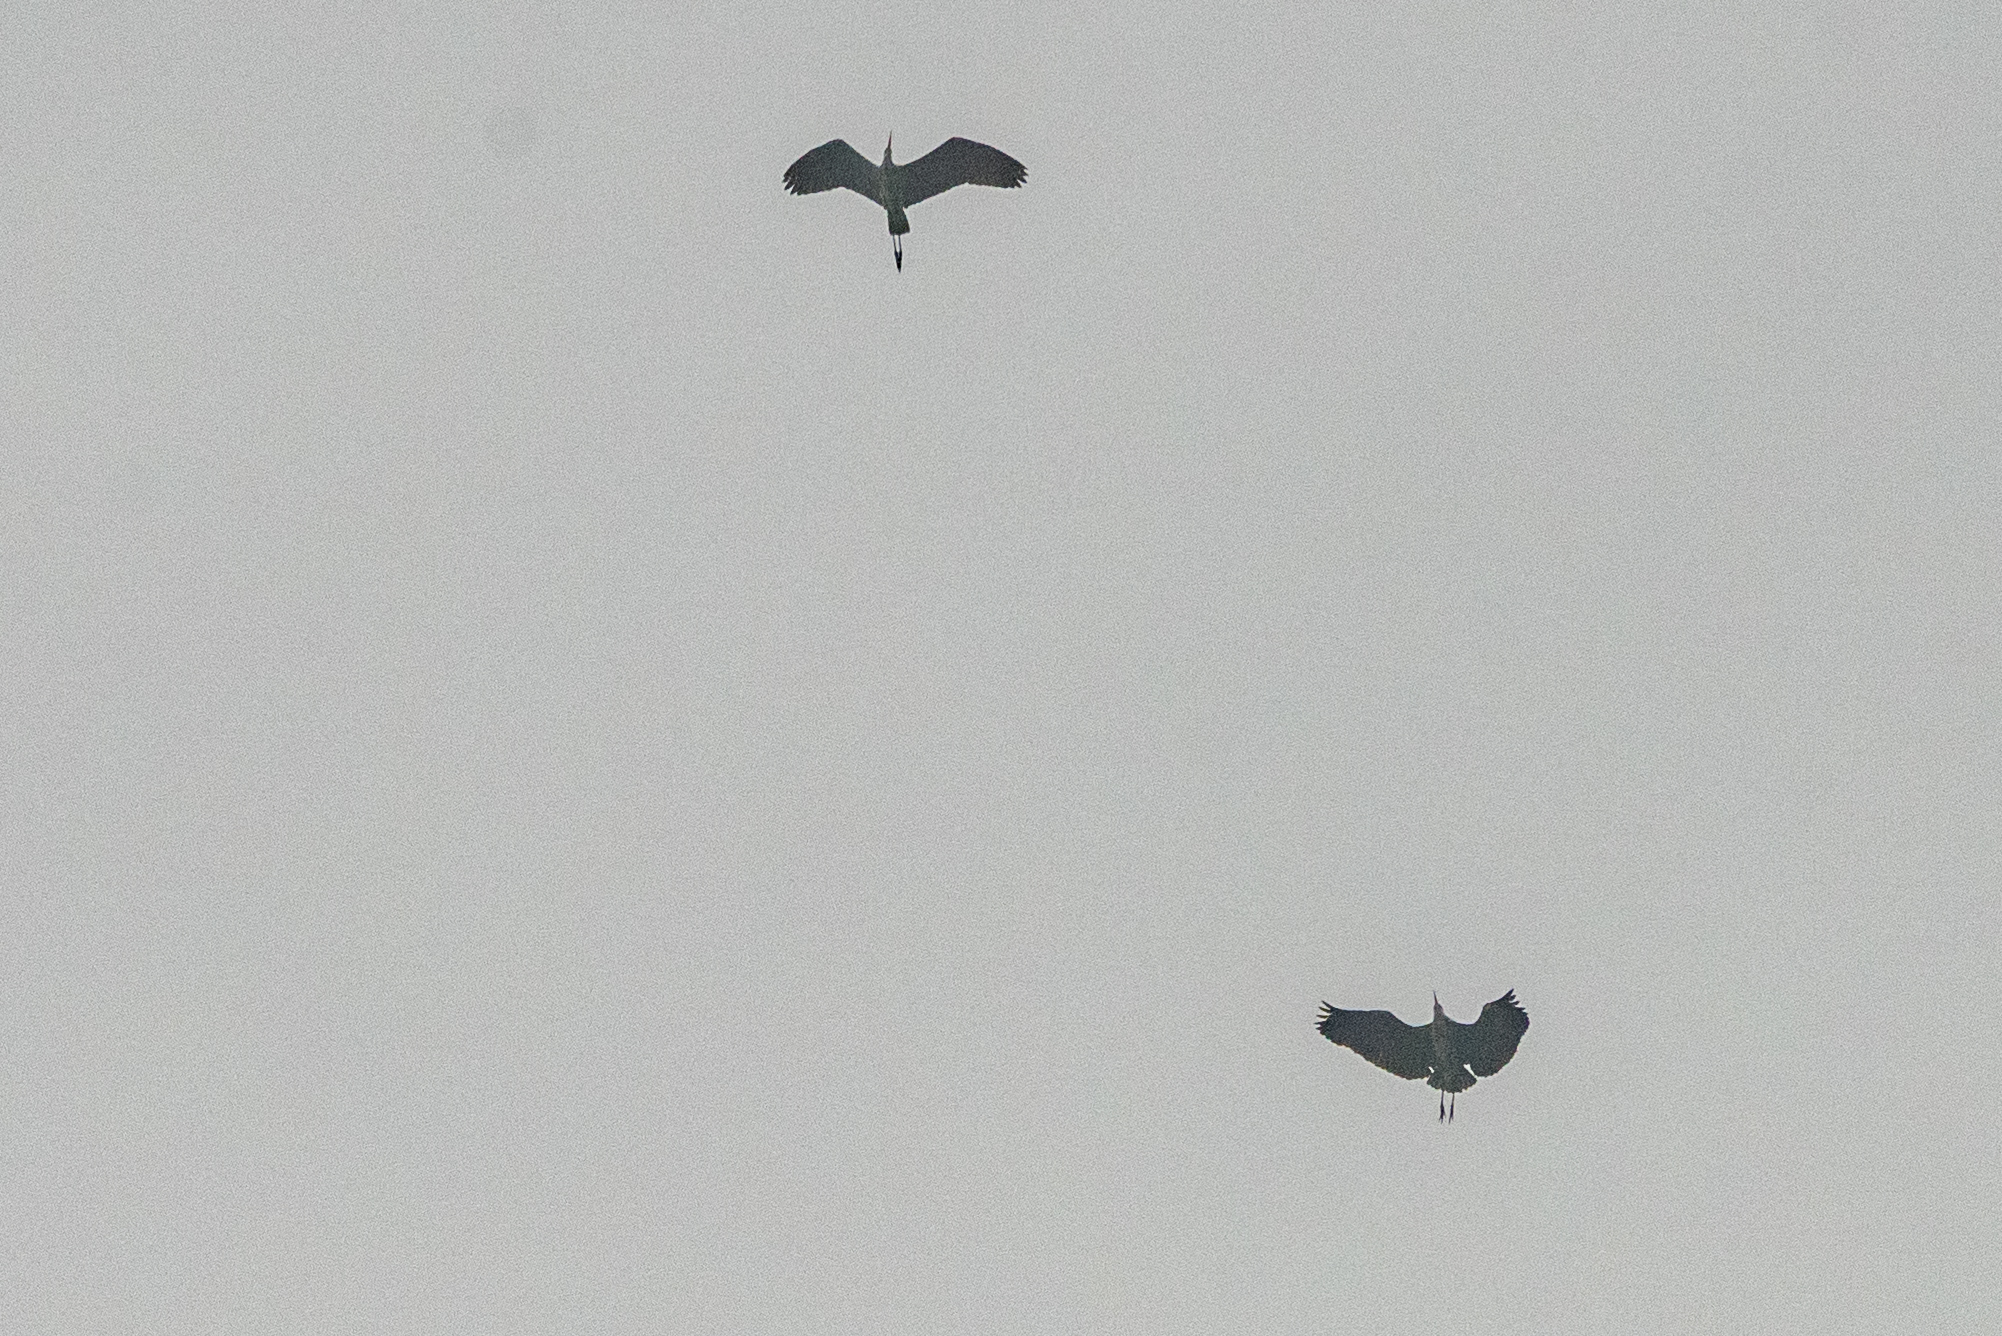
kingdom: Animalia
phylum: Chordata
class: Aves
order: Pelecaniformes
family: Ardeidae
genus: Ardea
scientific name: Ardea cinerea
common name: Grey heron
